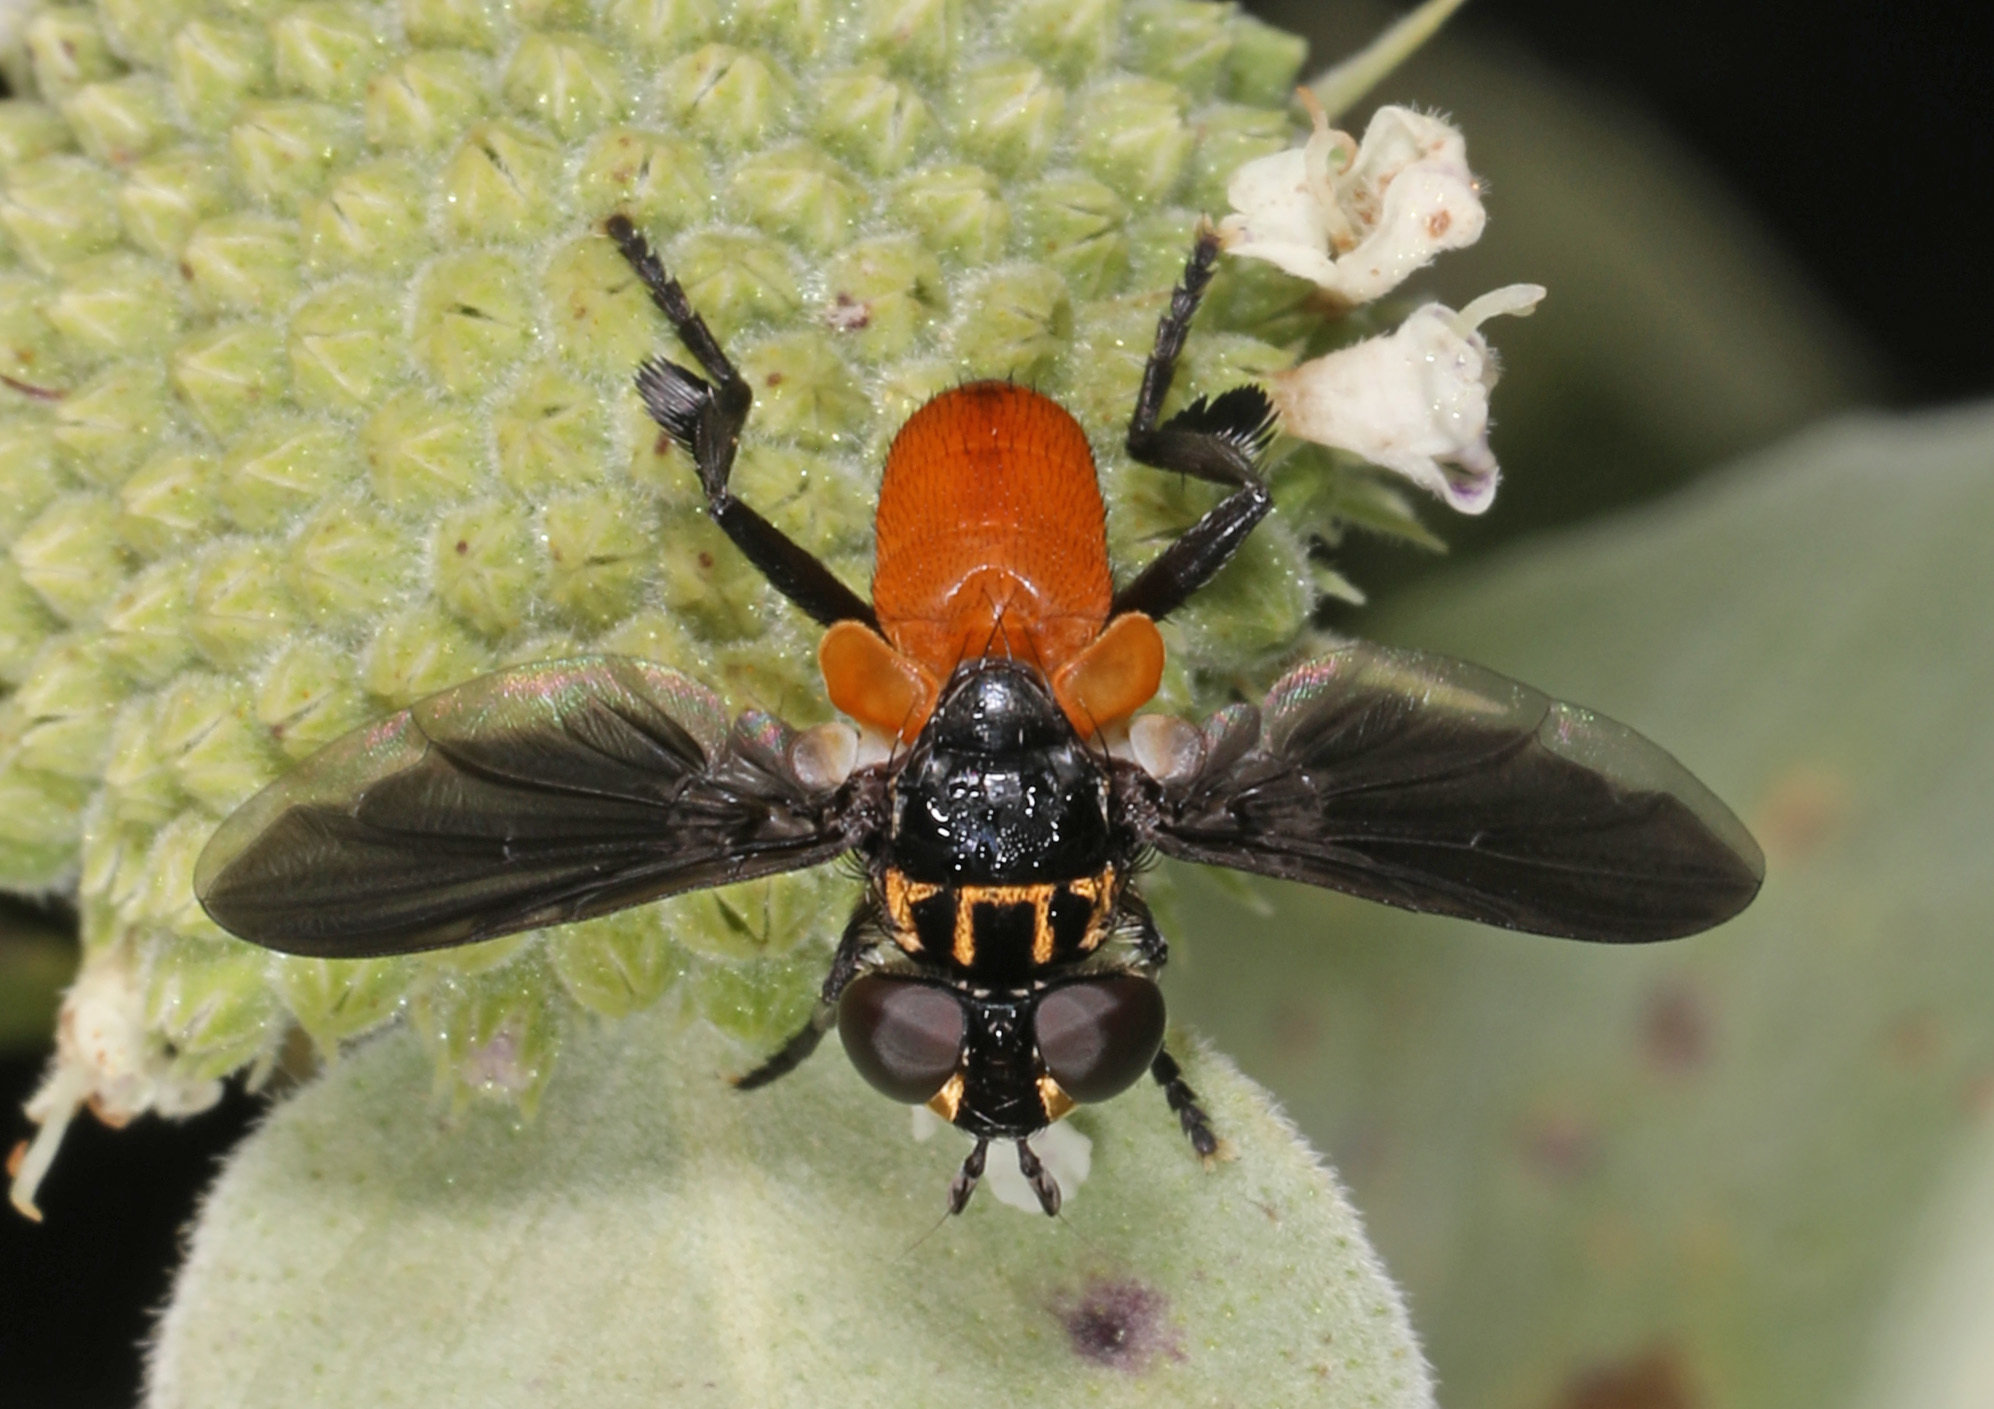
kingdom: Animalia
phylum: Arthropoda
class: Insecta
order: Diptera
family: Tachinidae
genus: Trichopoda
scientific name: Trichopoda pennipes
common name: Tachinid fly
